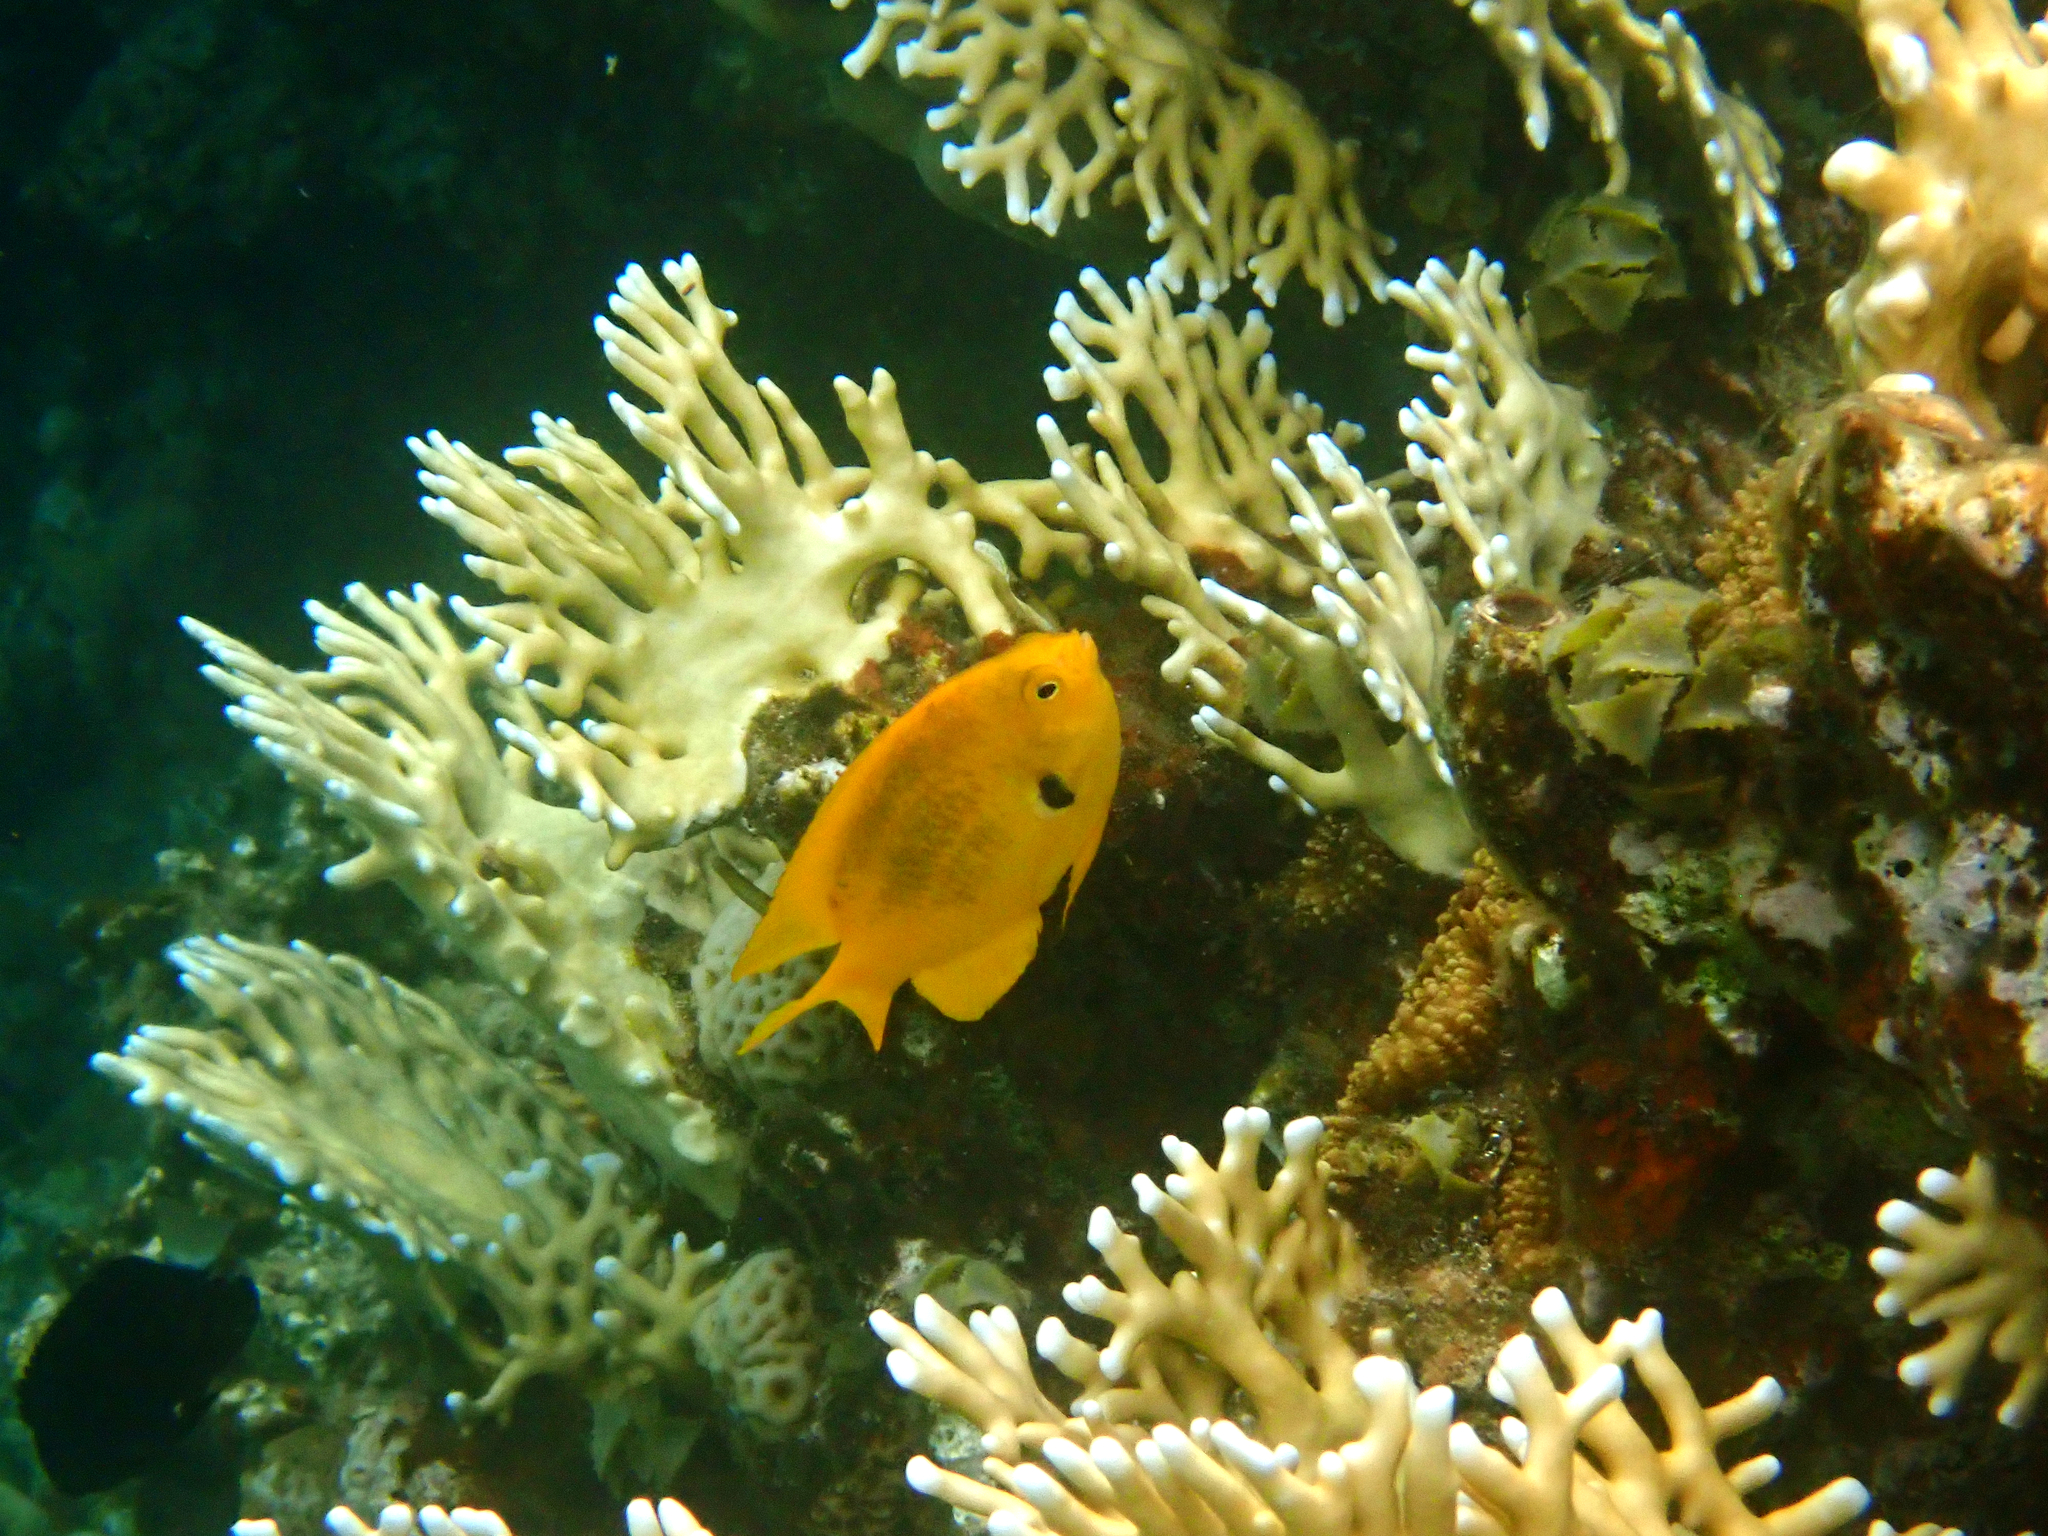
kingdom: Animalia
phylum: Chordata
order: Perciformes
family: Pomacentridae
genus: Pomacentrus
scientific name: Pomacentrus sulfureus
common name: Sulfur damsel
